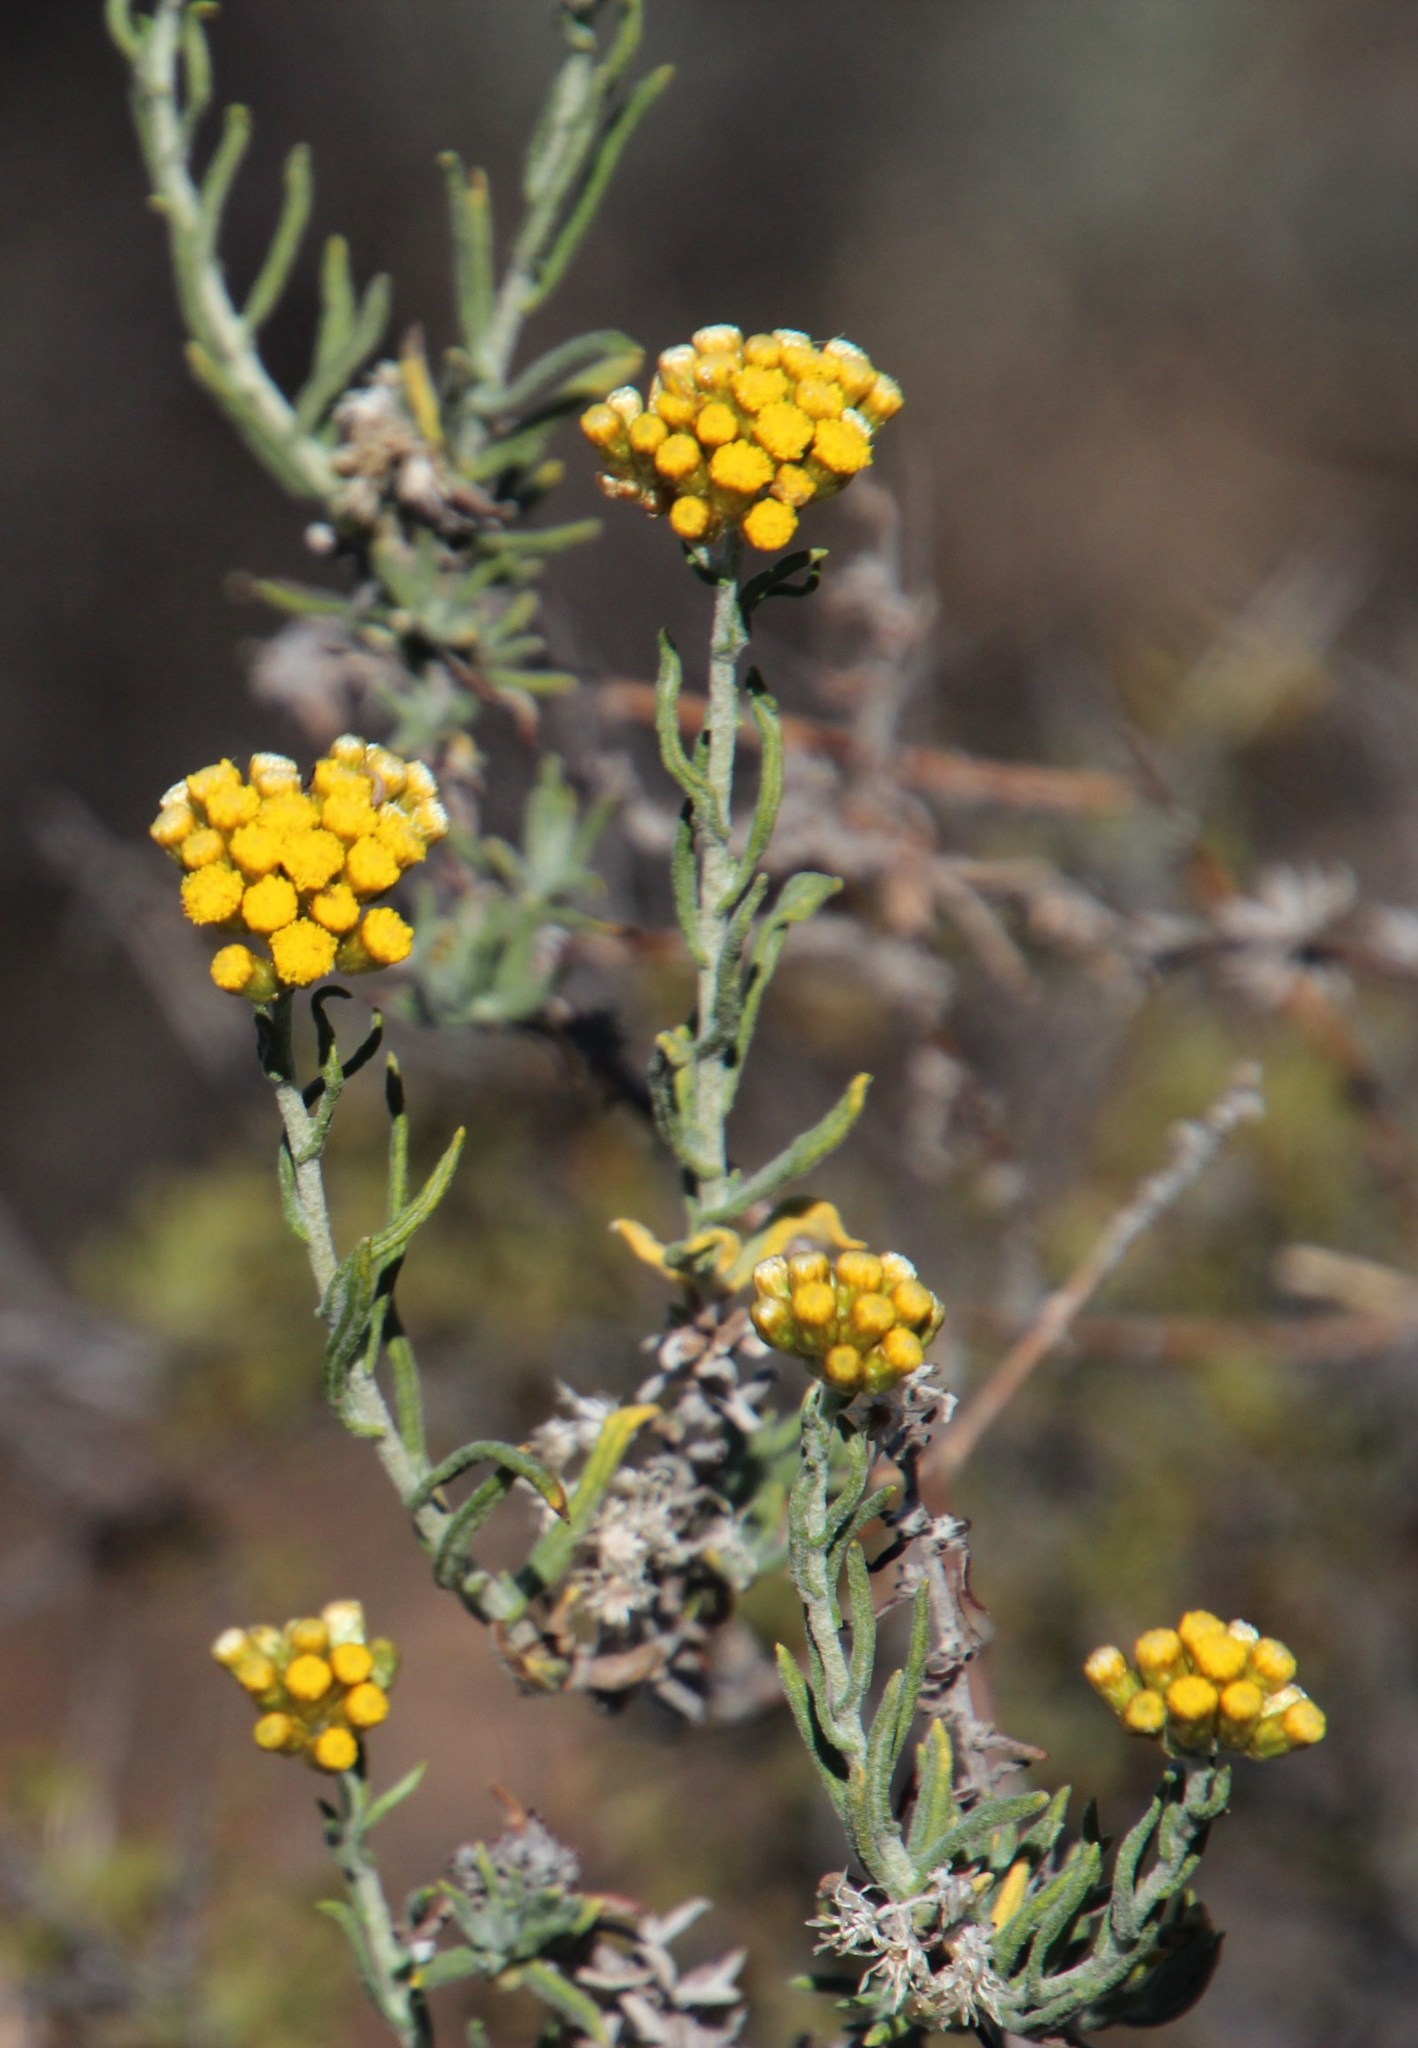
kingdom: Plantae
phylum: Tracheophyta
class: Magnoliopsida
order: Asterales
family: Asteraceae
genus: Helichrysum
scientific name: Helichrysum revolutum
